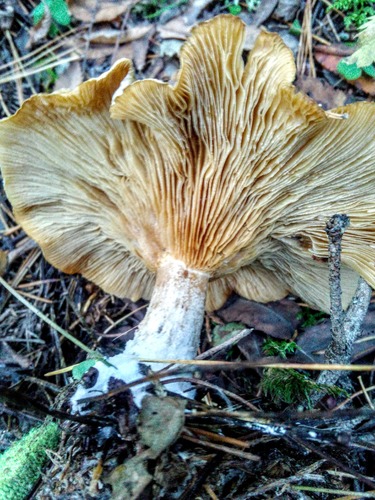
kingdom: Fungi
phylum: Basidiomycota
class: Agaricomycetes
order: Agaricales
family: Tricholomataceae
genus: Clitocybe
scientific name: Clitocybe nebularis
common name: Clouded agaric
